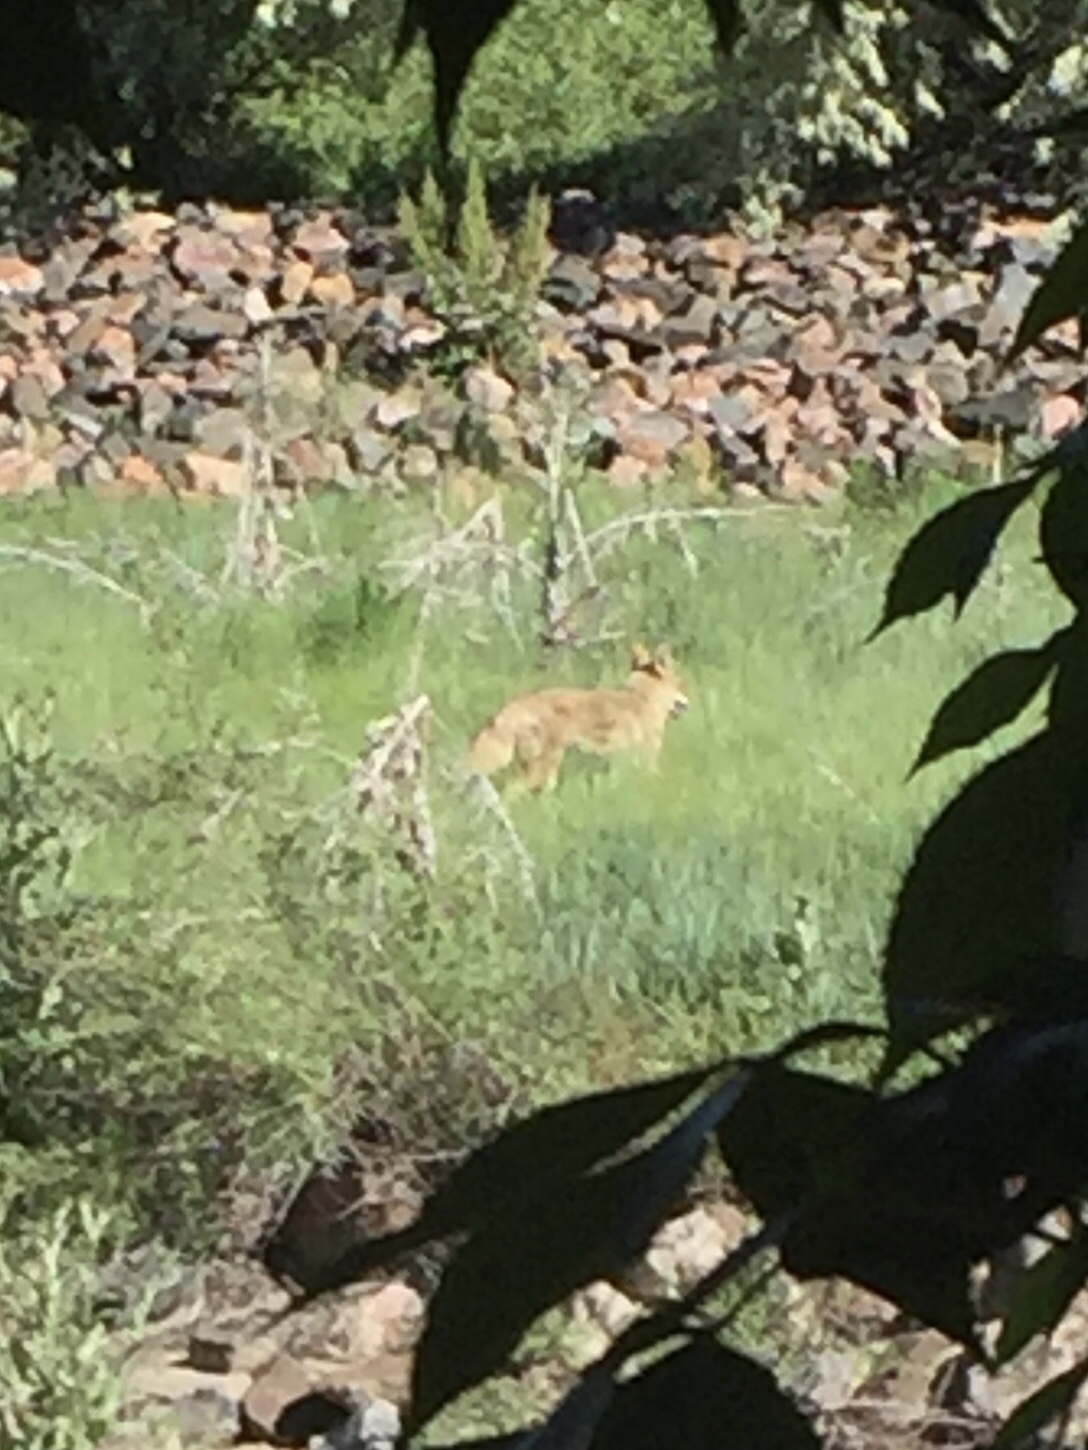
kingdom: Animalia
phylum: Chordata
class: Mammalia
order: Carnivora
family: Canidae
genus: Canis
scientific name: Canis latrans
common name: Coyote
